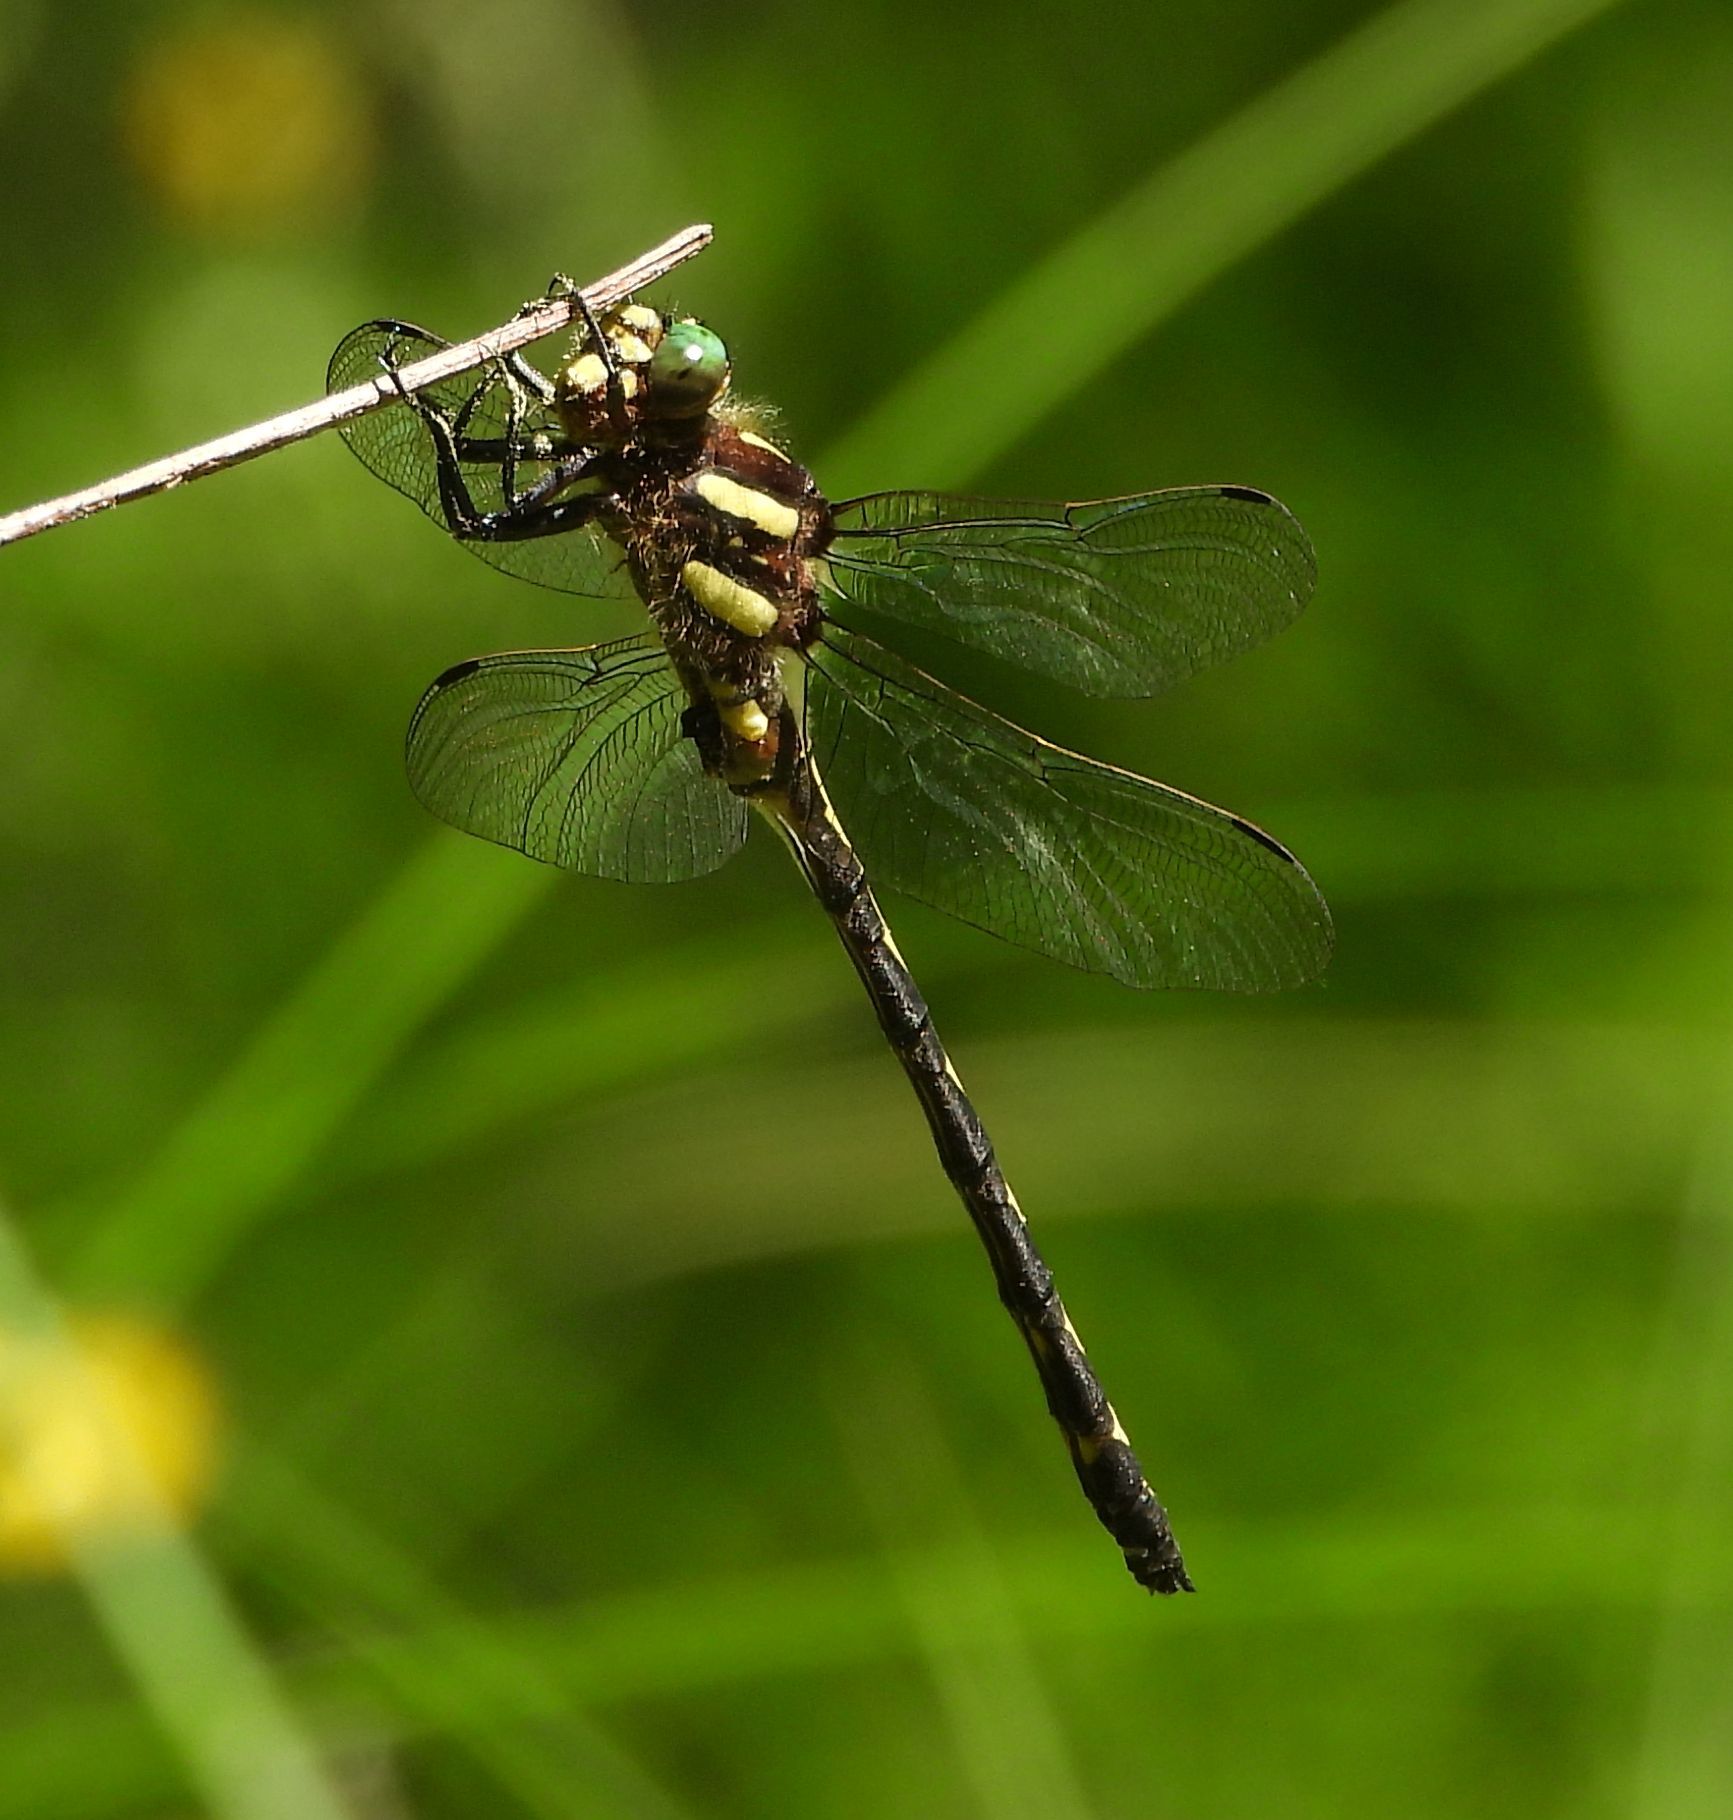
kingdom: Animalia
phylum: Arthropoda
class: Insecta
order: Odonata
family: Cordulegastridae
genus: Cordulegaster
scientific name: Cordulegaster obliqua
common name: Arrowhead spiketail
